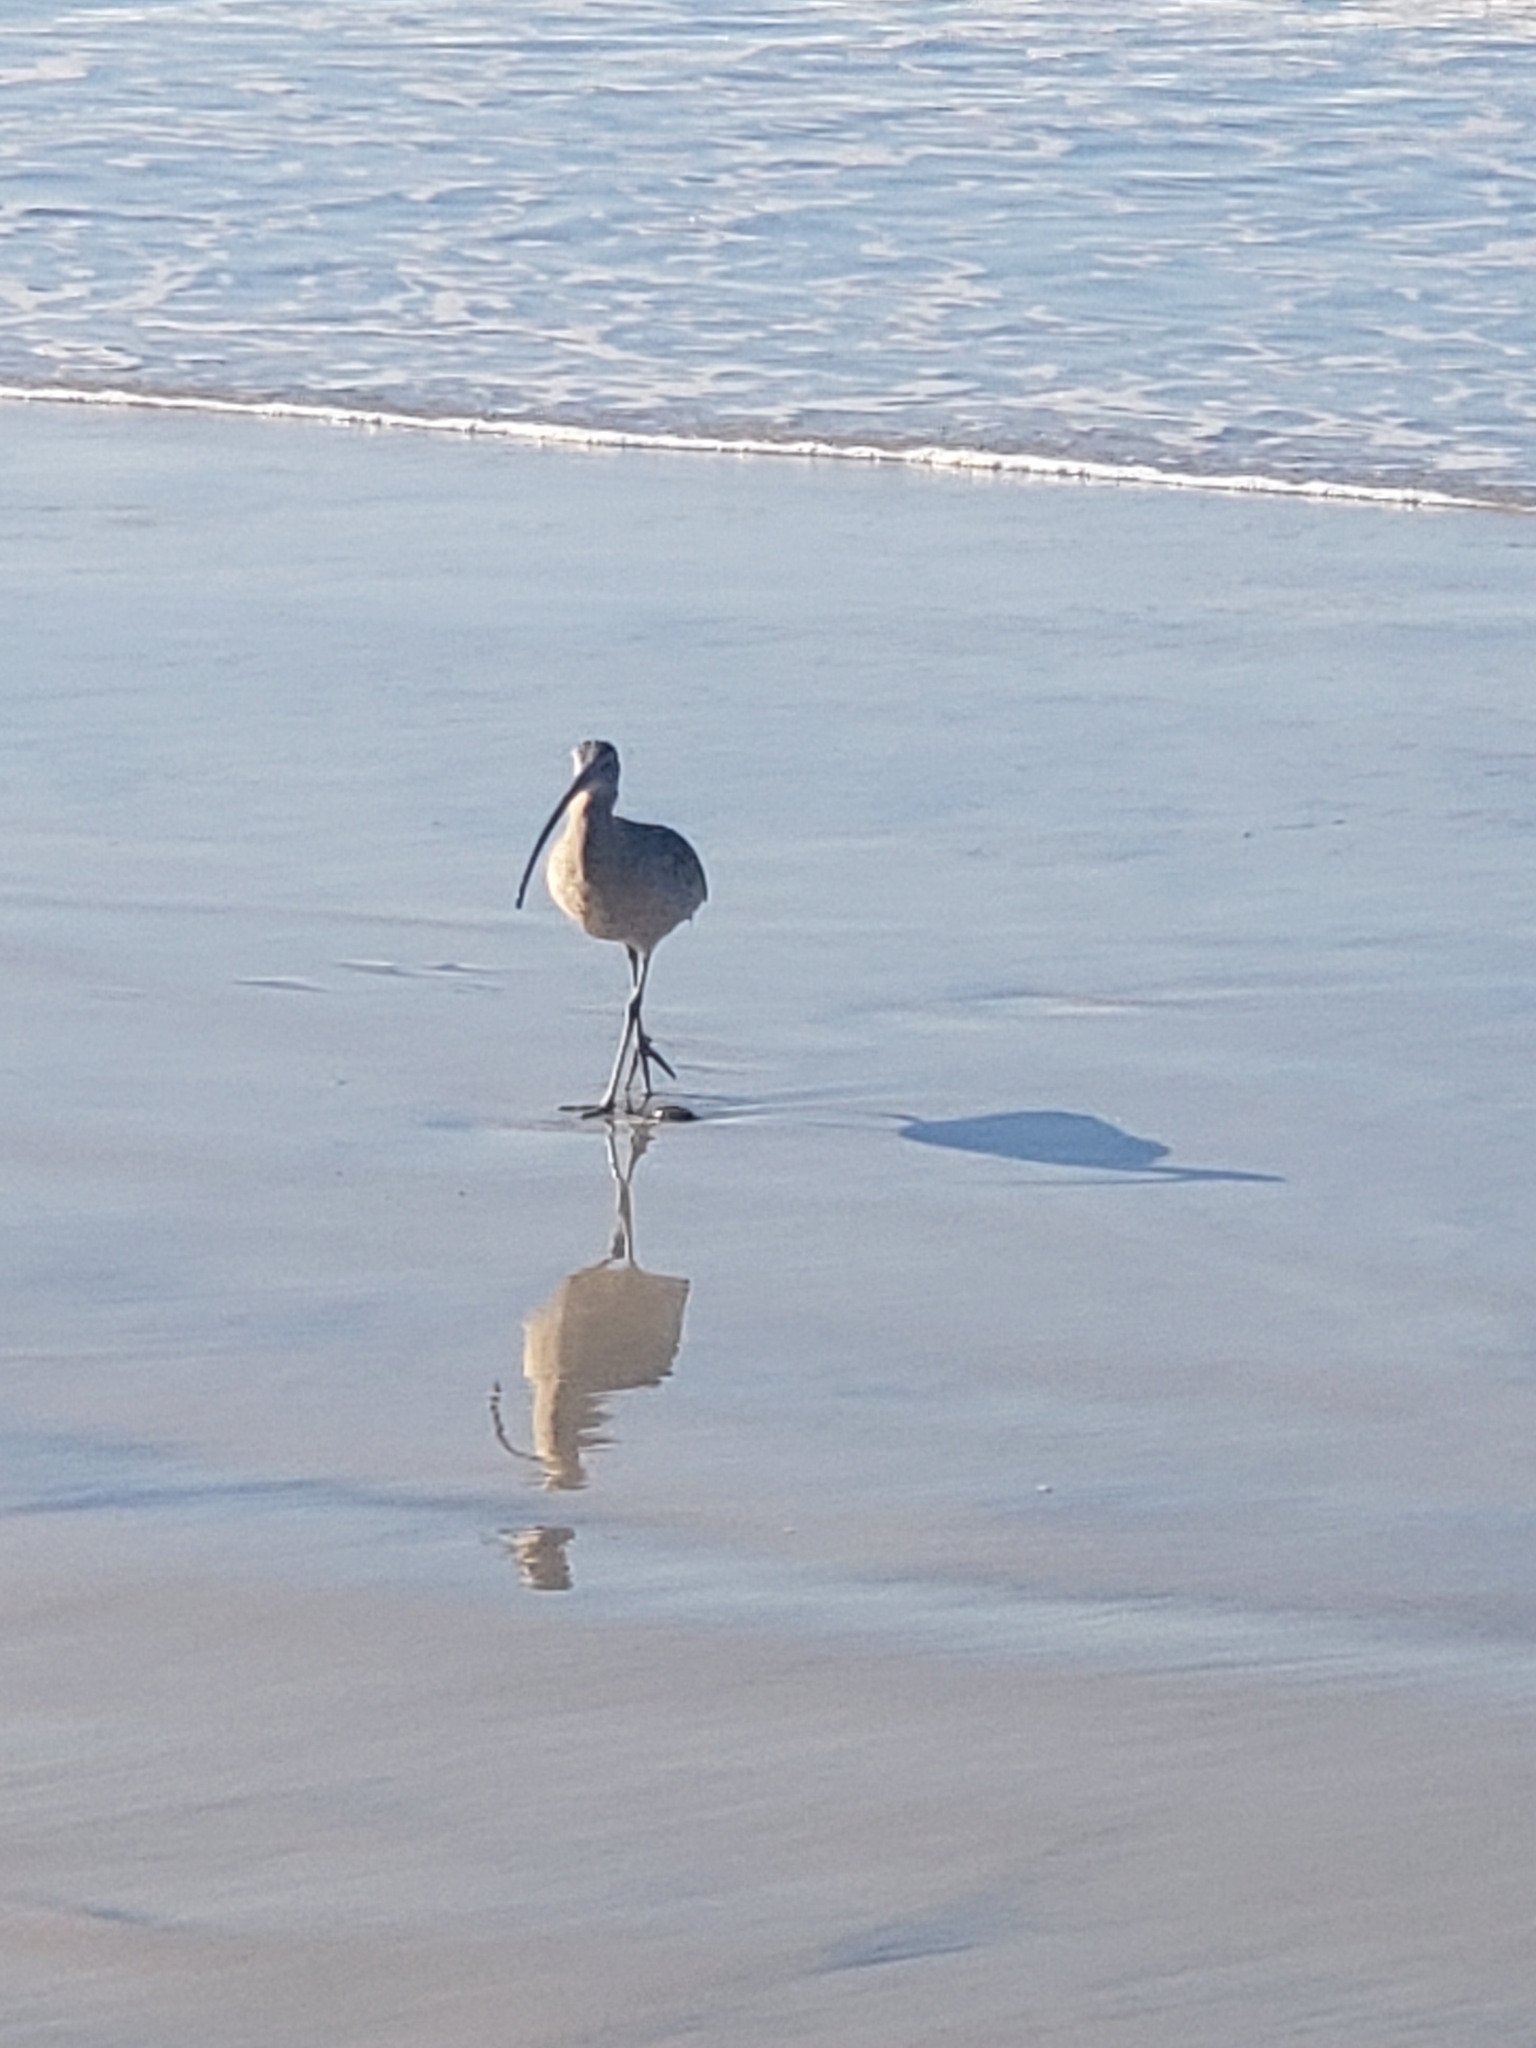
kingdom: Animalia
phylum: Chordata
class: Aves
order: Charadriiformes
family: Scolopacidae
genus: Numenius
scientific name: Numenius americanus
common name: Long-billed curlew
